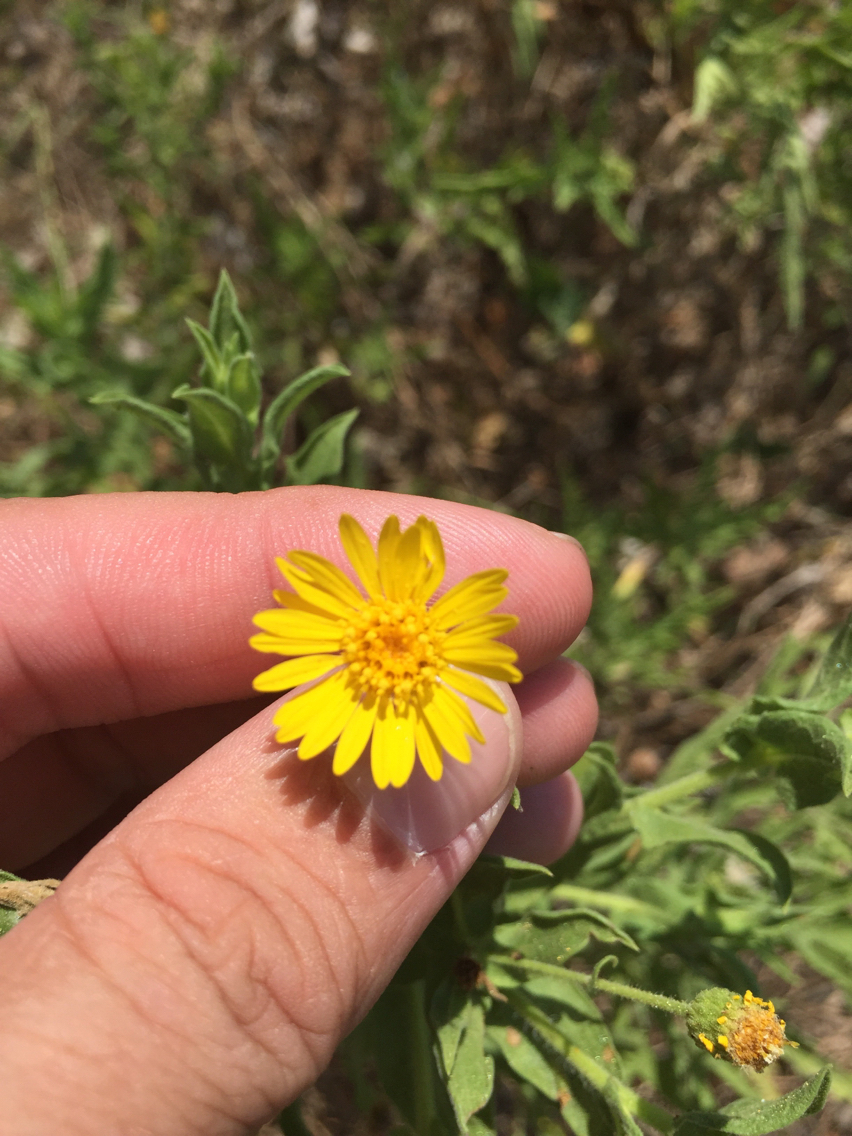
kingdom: Plantae
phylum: Tracheophyta
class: Magnoliopsida
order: Asterales
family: Asteraceae
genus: Heterotheca
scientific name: Heterotheca subaxillaris
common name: Camphorweed
